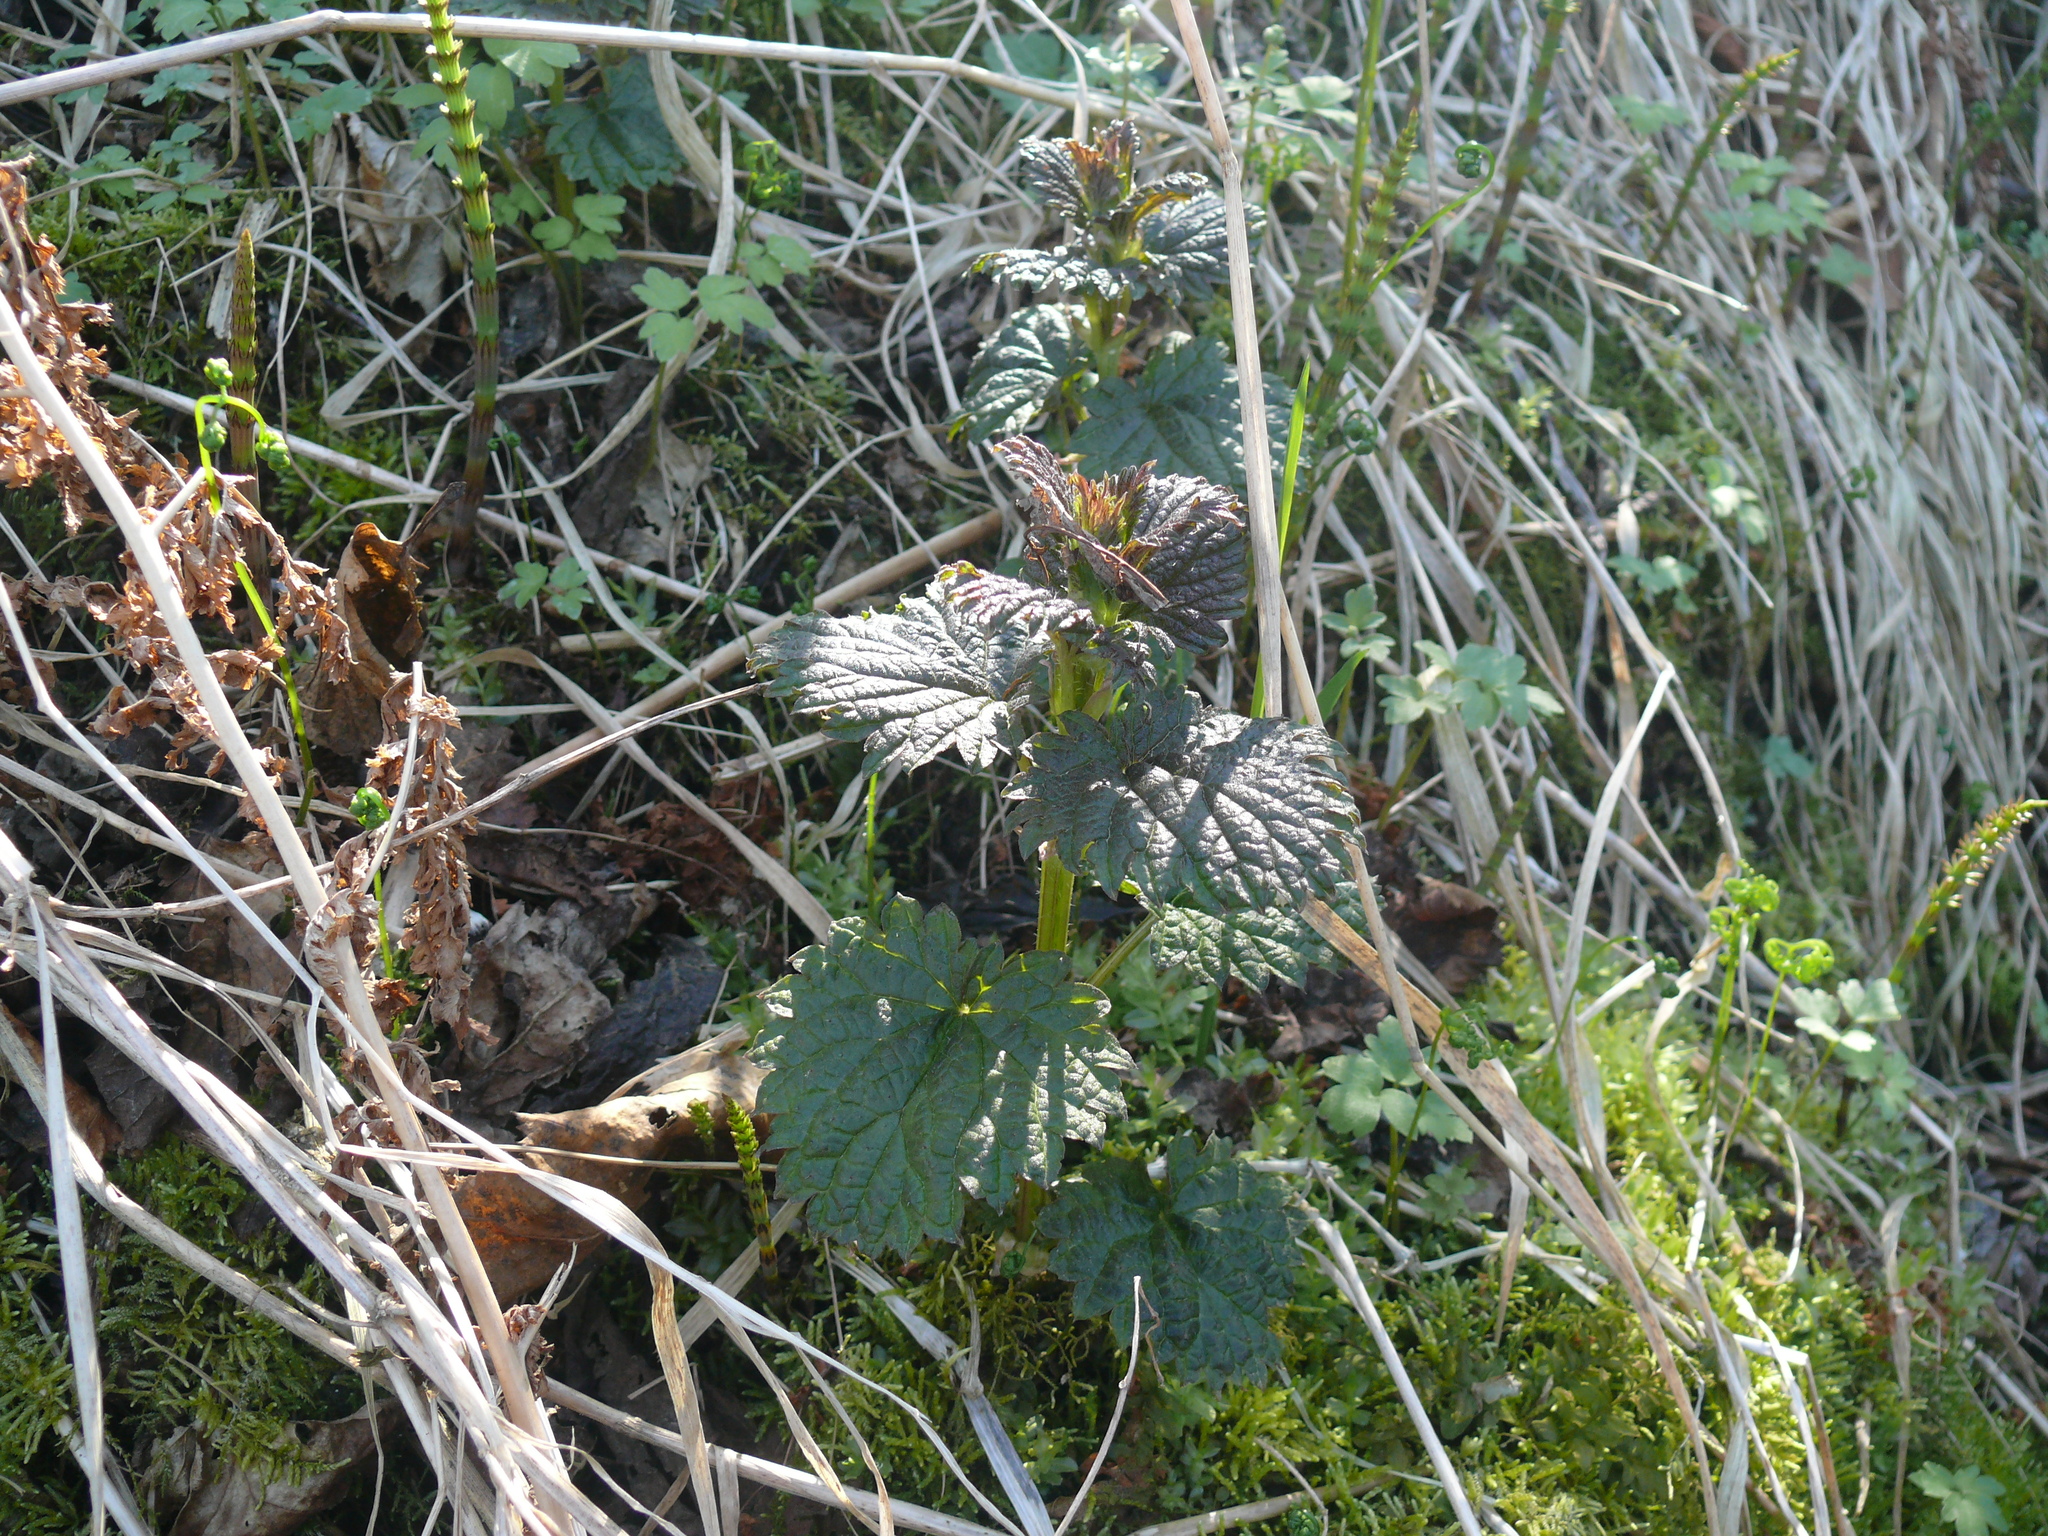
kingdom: Plantae
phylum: Tracheophyta
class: Magnoliopsida
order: Rosales
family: Urticaceae
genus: Urtica
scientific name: Urtica dioica
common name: Common nettle
